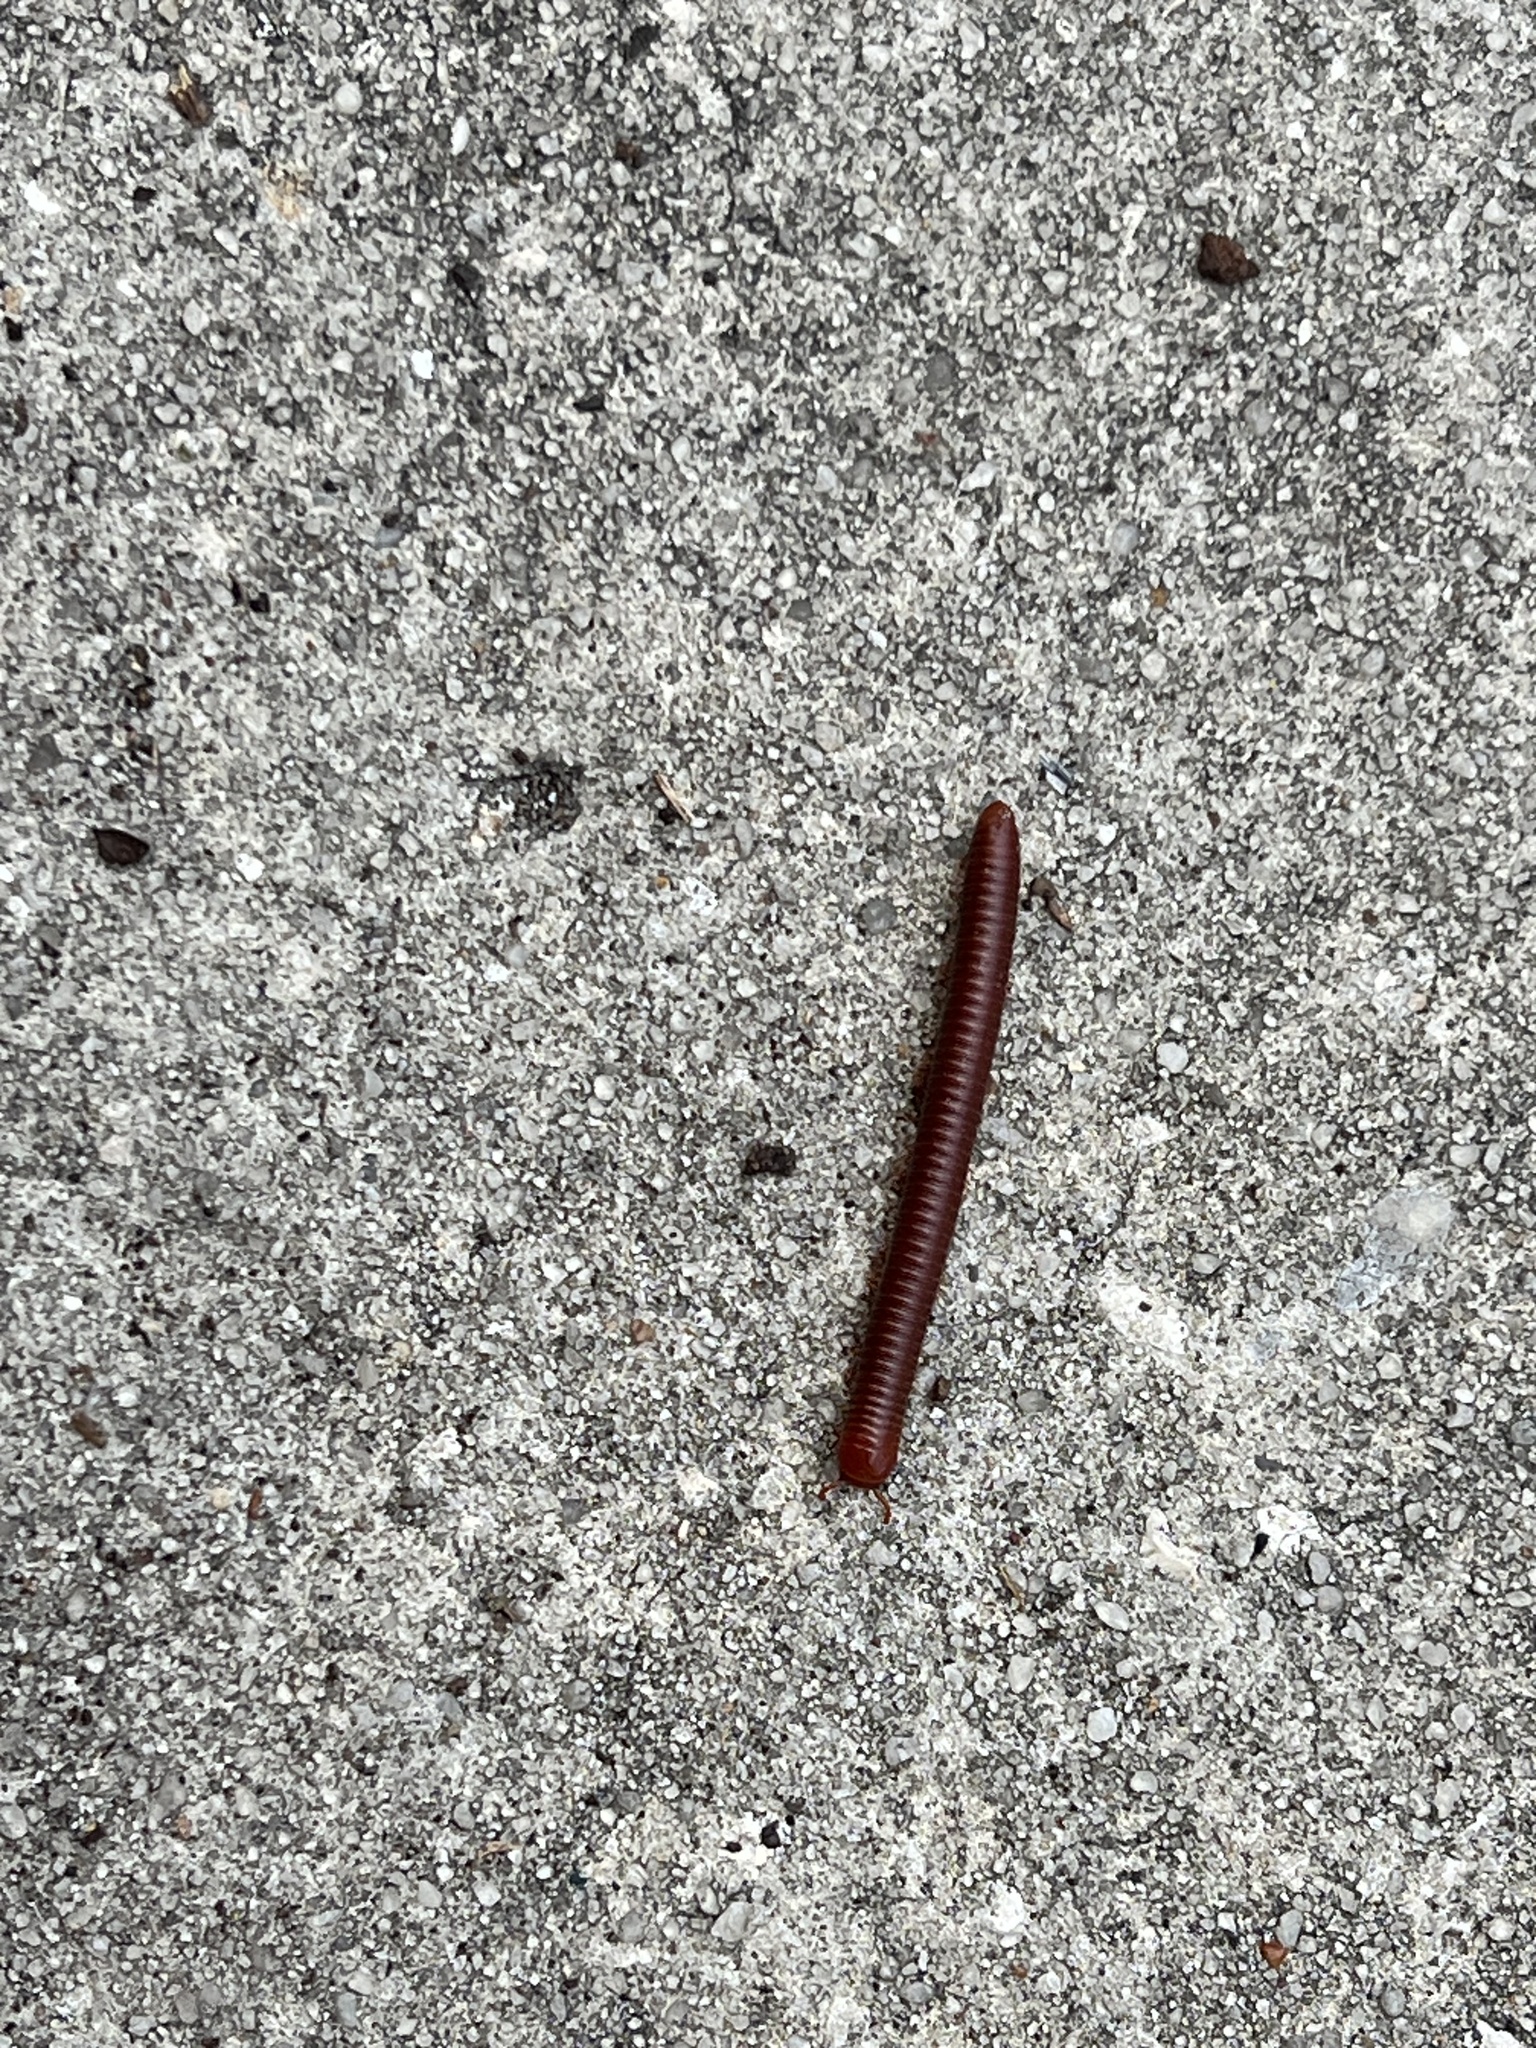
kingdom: Animalia
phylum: Arthropoda
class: Diplopoda
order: Spirobolida
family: Pachybolidae
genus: Trigoniulus
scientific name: Trigoniulus corallinus
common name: Millipede
